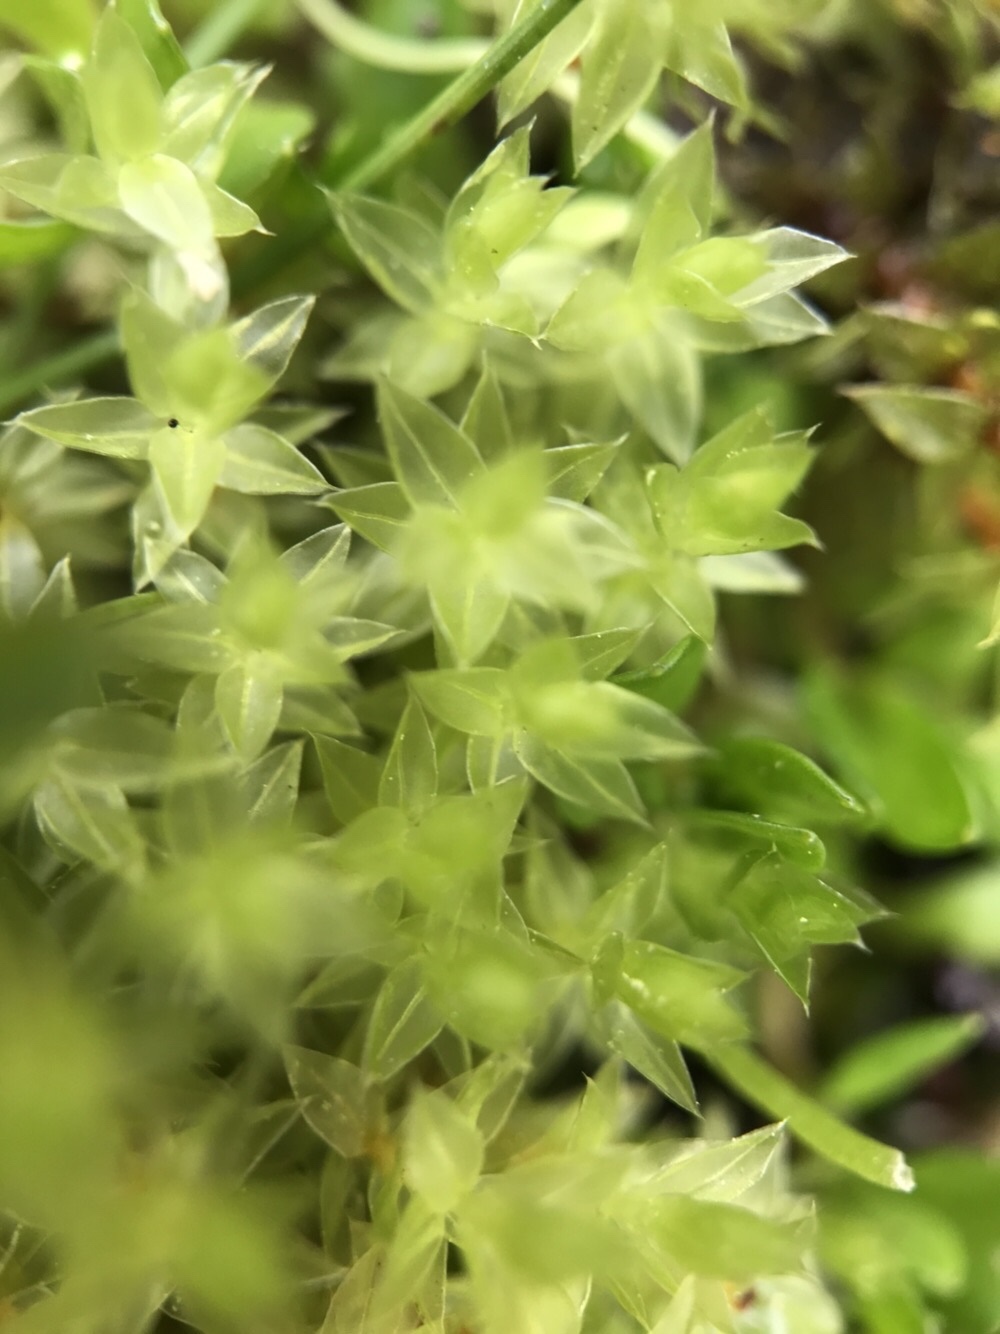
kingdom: Plantae
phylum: Bryophyta
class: Bryopsida
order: Bryales
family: Bryaceae
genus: Ptychostomum
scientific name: Ptychostomum pseudotriquetrum
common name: Long-leaved thread moss
